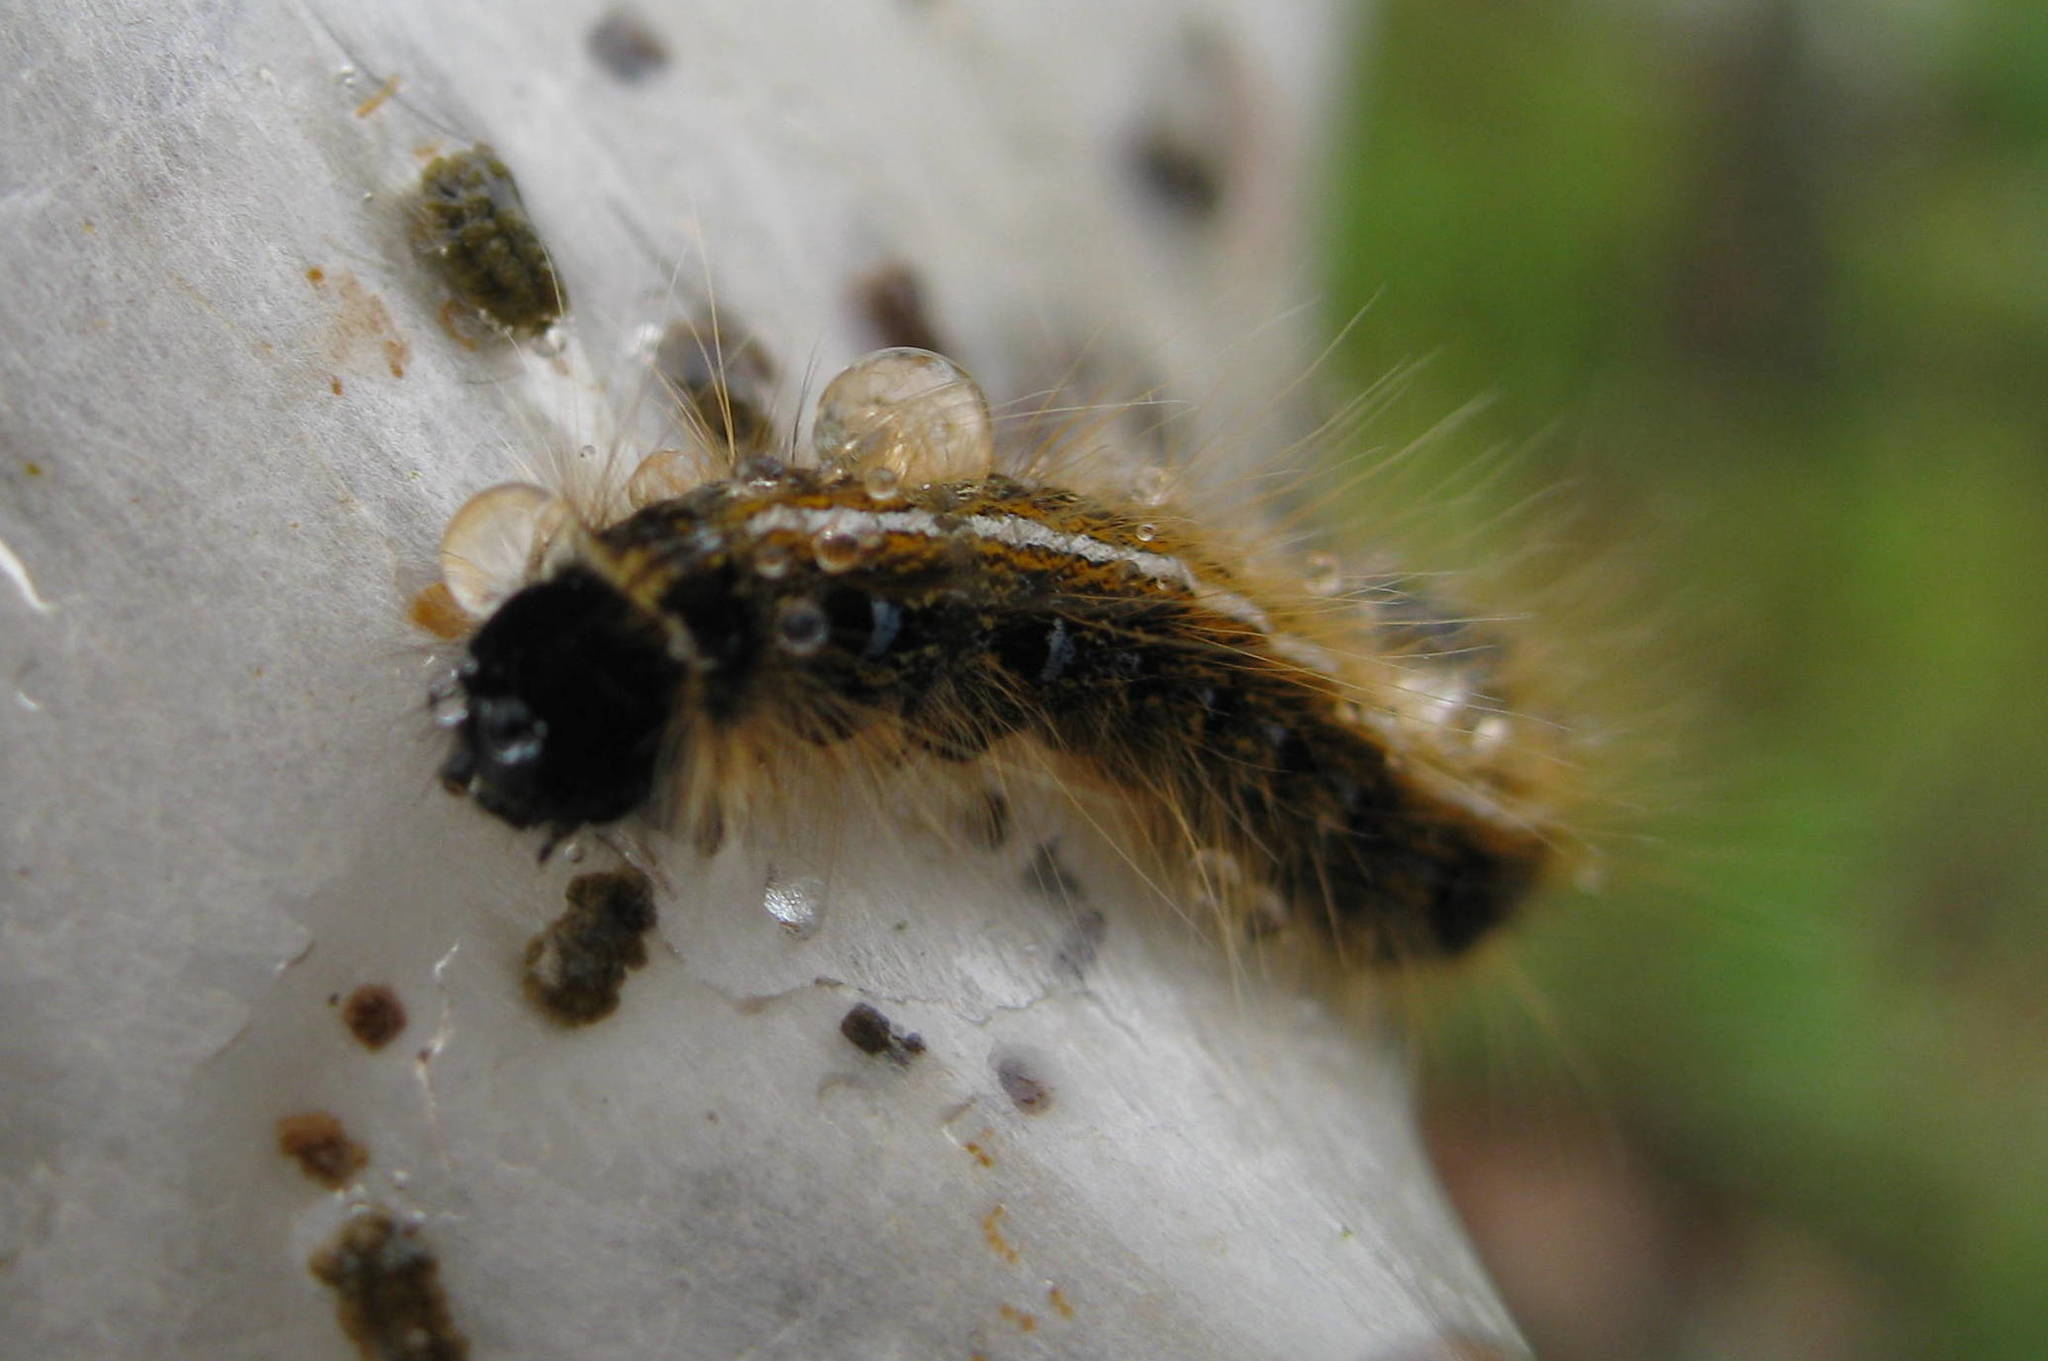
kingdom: Animalia
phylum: Arthropoda
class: Insecta
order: Lepidoptera
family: Lasiocampidae
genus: Malacosoma
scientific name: Malacosoma americana
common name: Eastern tent caterpillar moth
